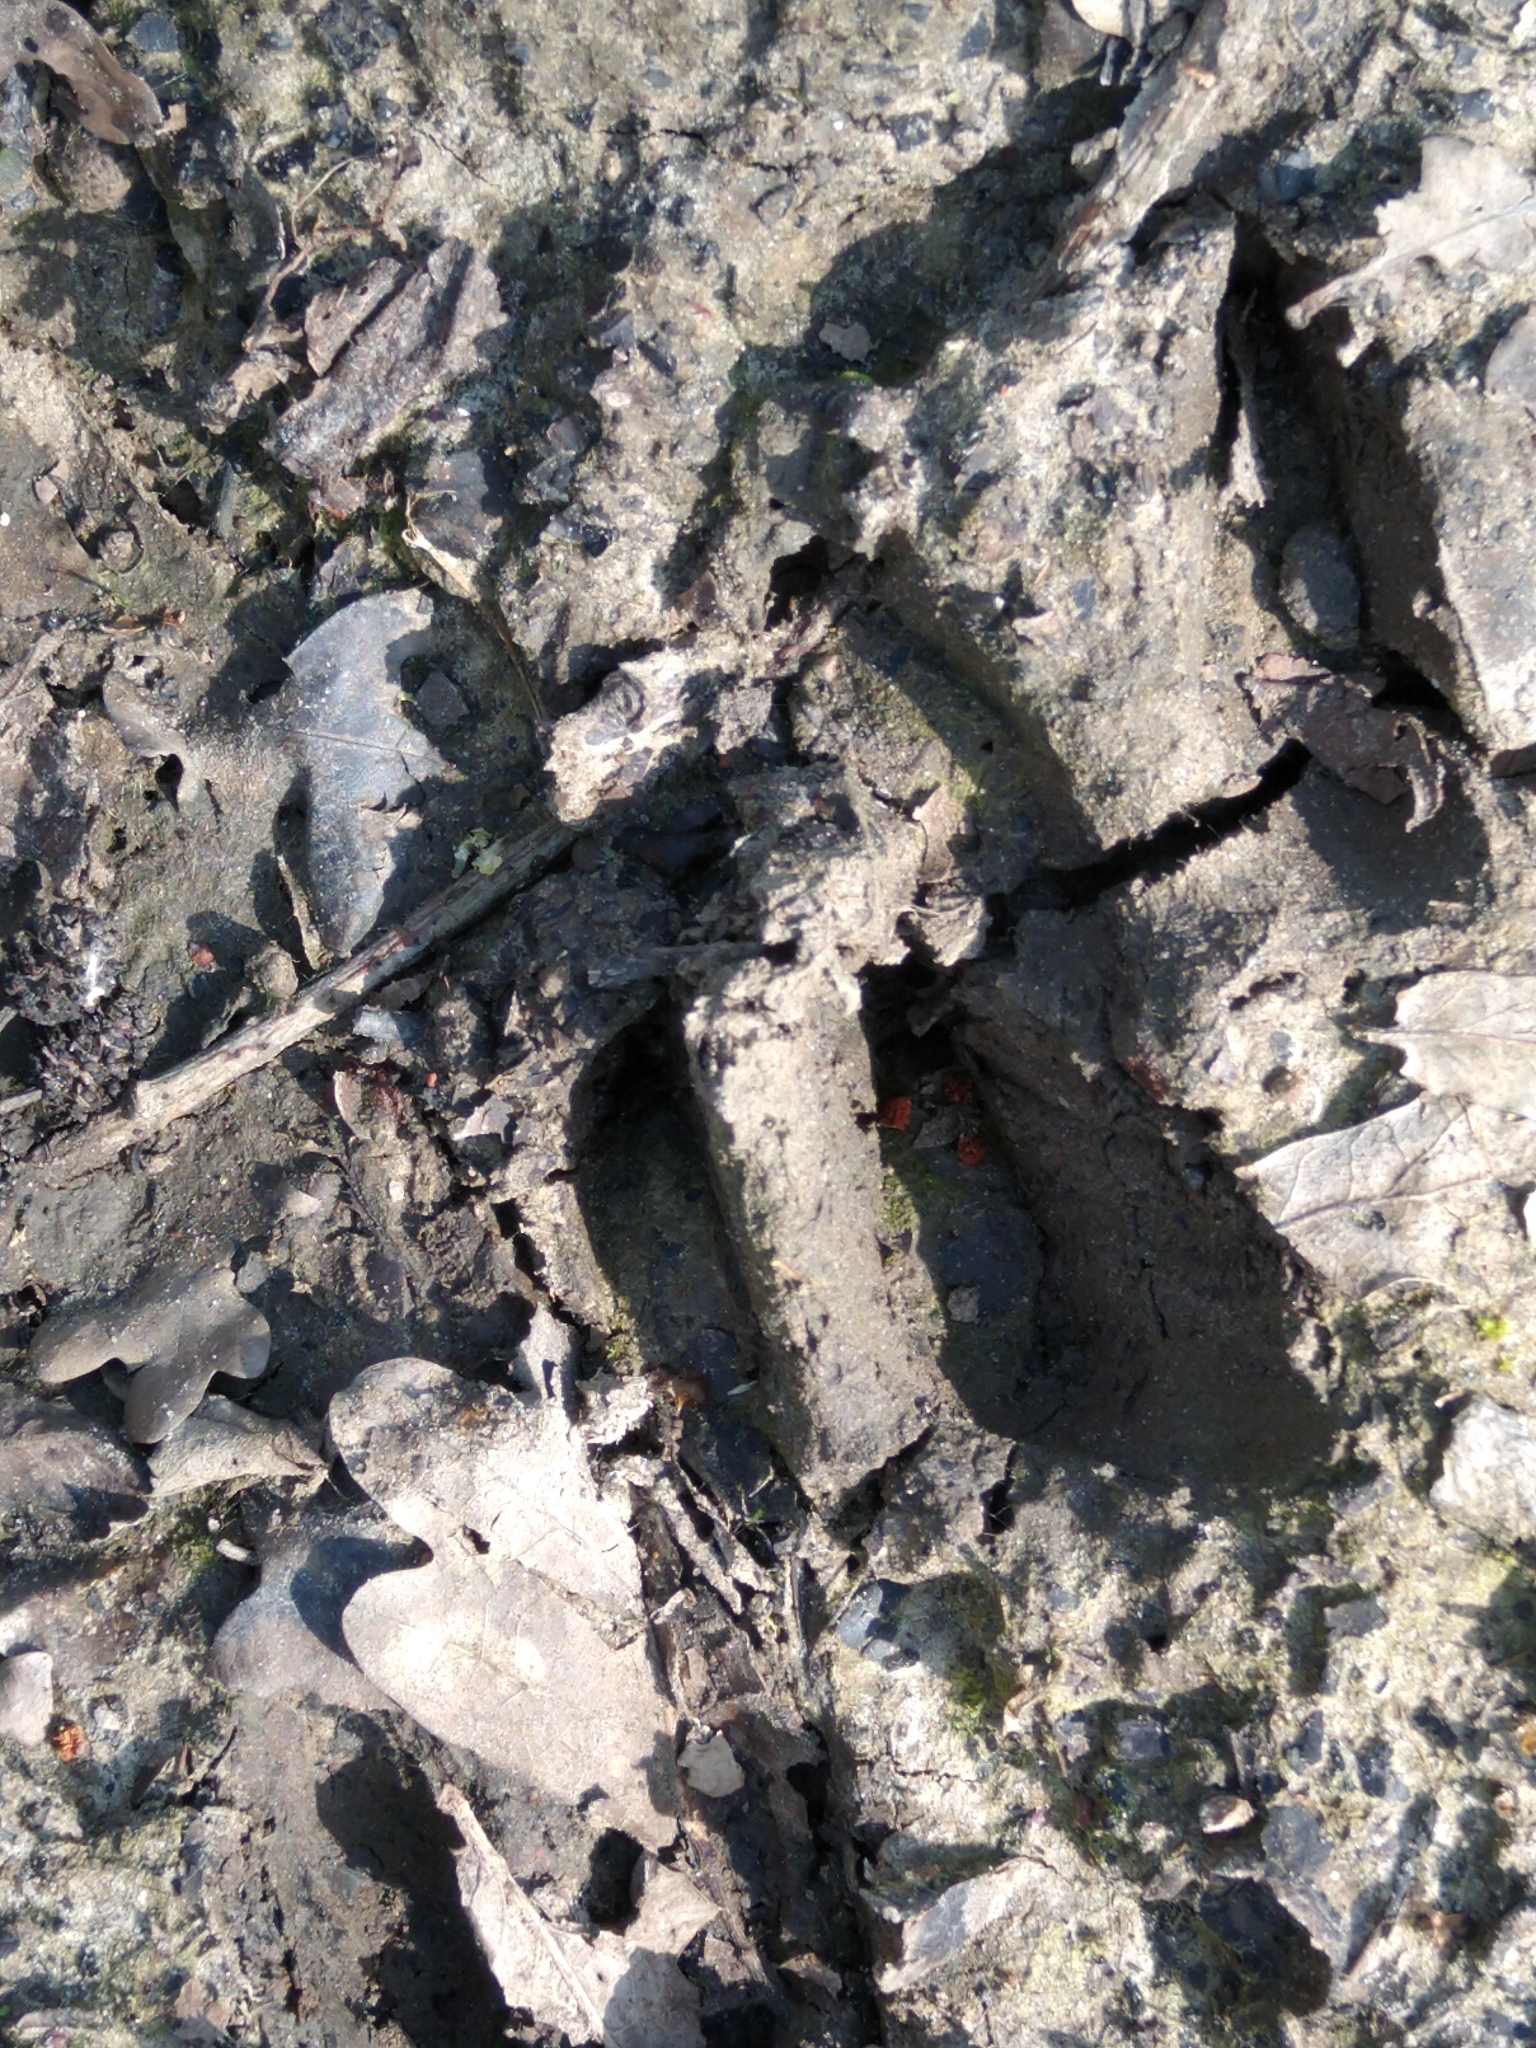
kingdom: Animalia
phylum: Chordata
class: Mammalia
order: Artiodactyla
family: Cervidae
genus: Capreolus
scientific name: Capreolus capreolus
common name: Western roe deer
